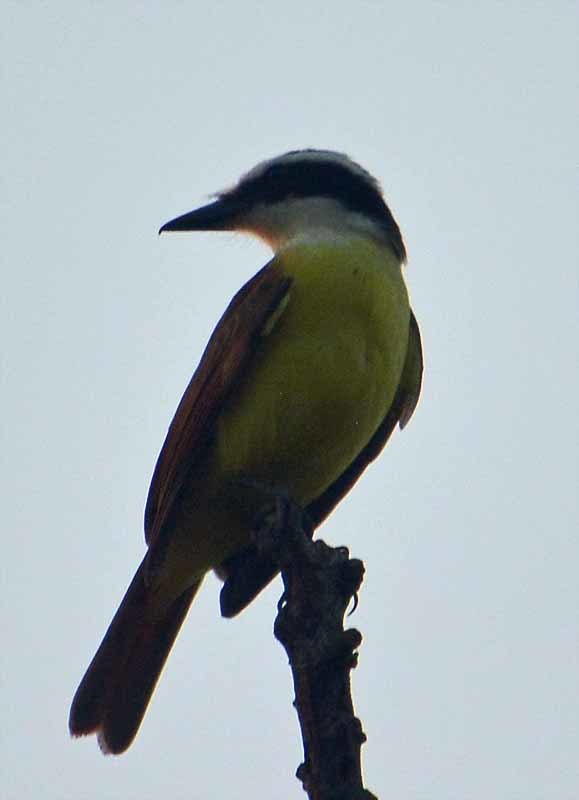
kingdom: Animalia
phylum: Chordata
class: Aves
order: Passeriformes
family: Tyrannidae
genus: Pitangus
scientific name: Pitangus sulphuratus
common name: Great kiskadee
